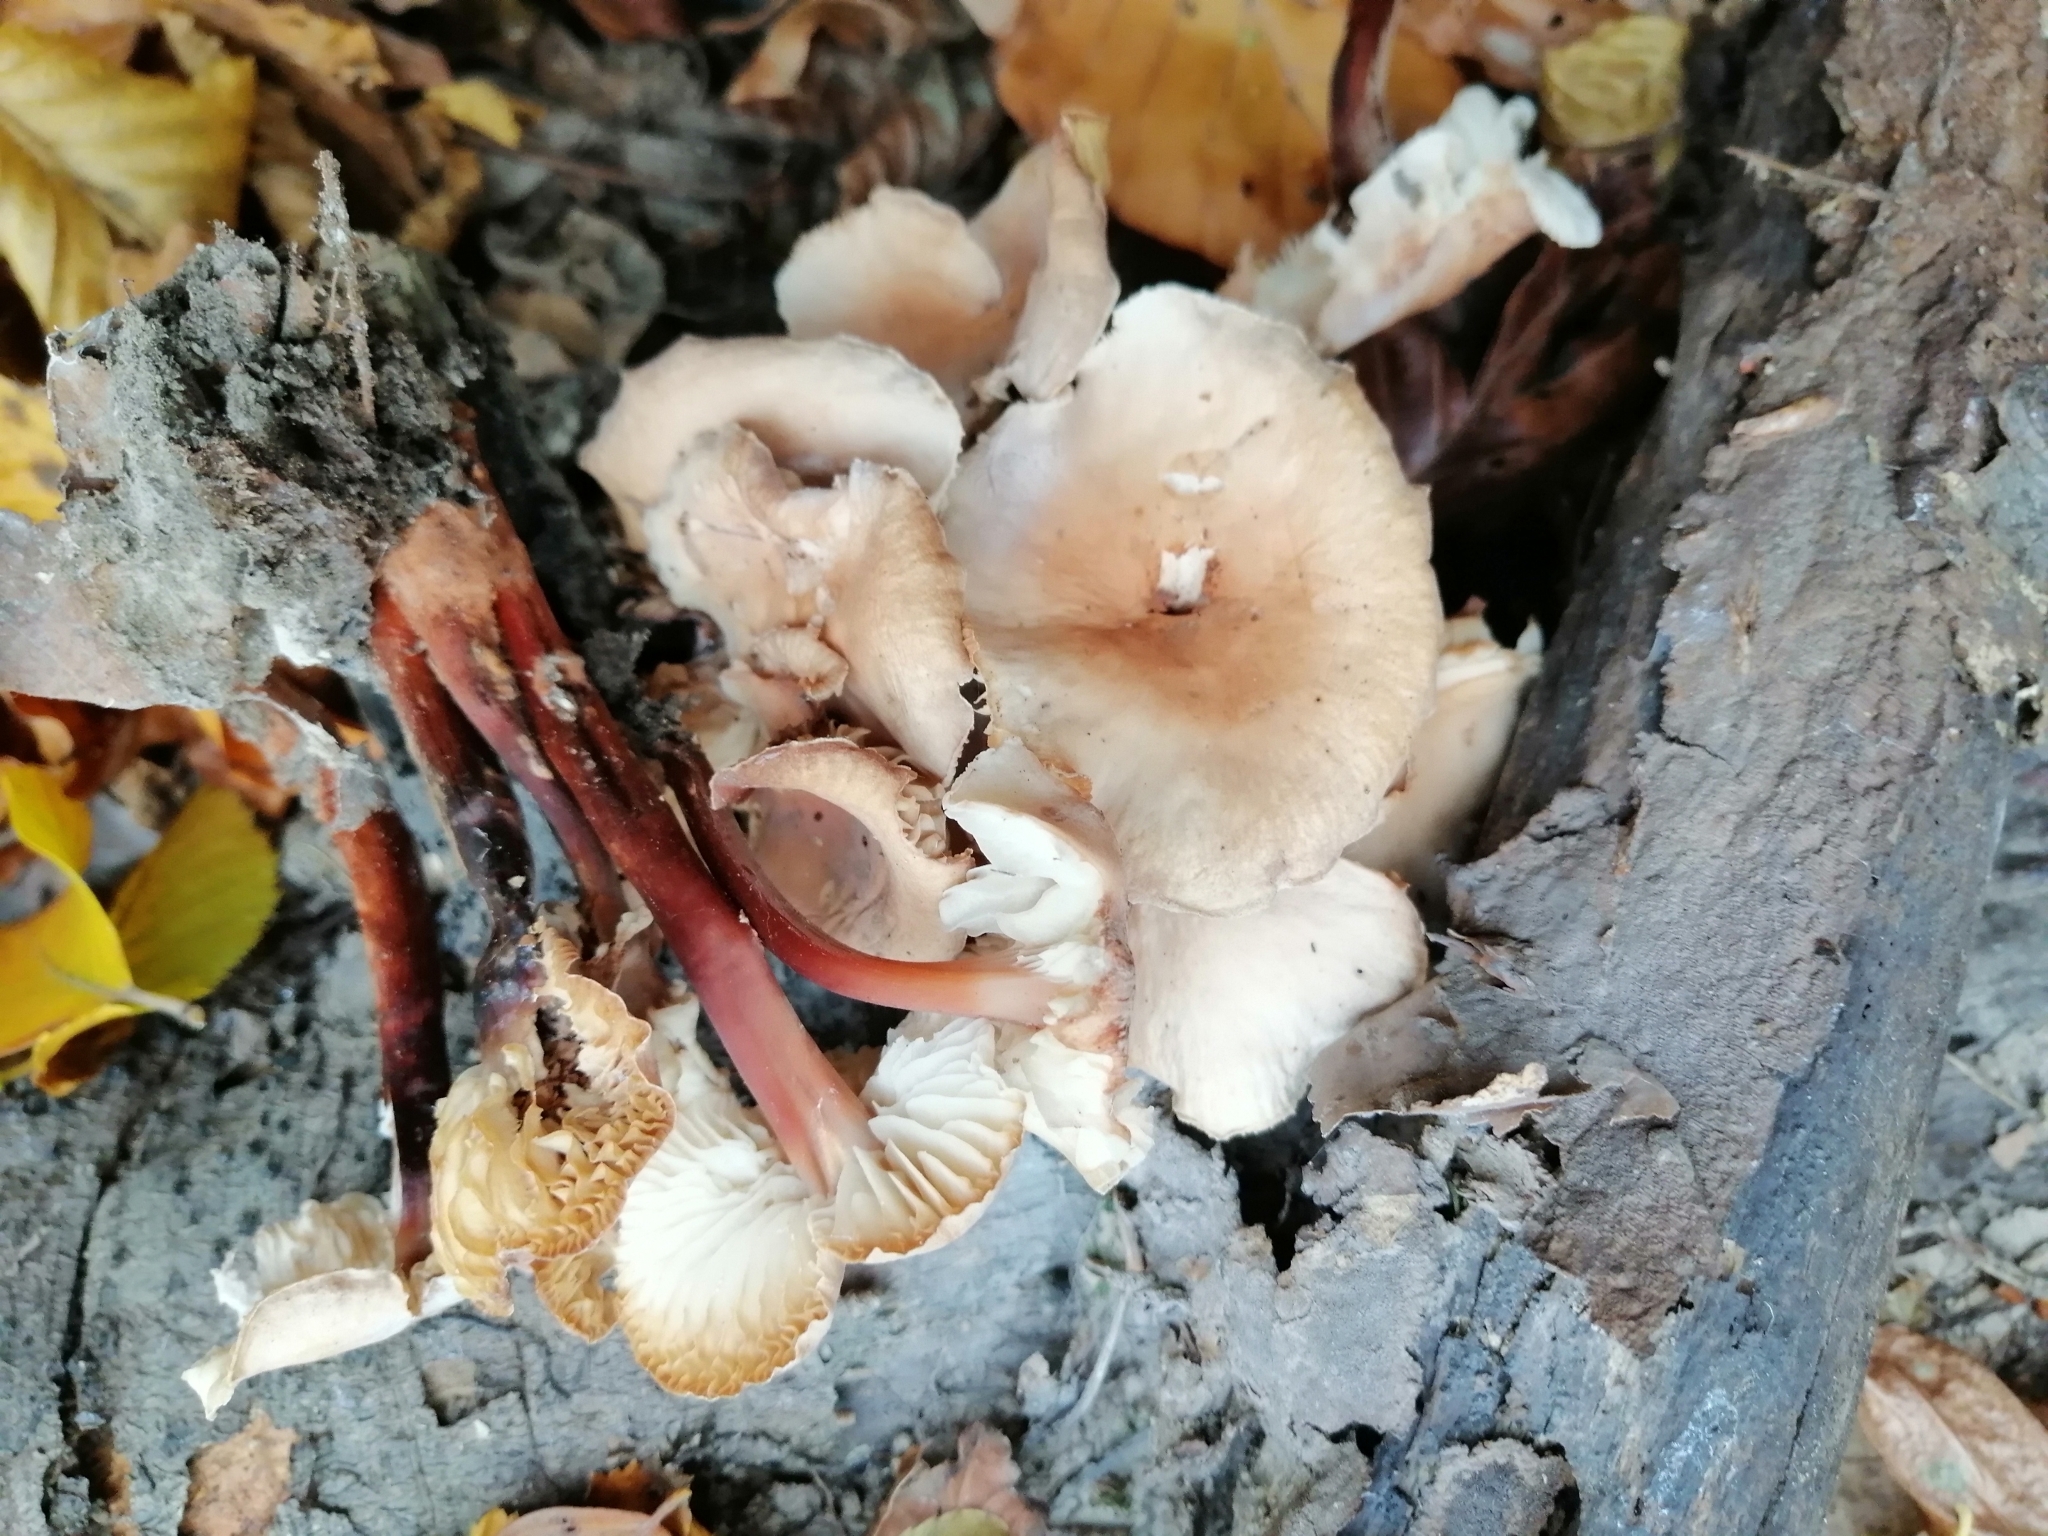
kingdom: Fungi
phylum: Basidiomycota
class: Agaricomycetes
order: Agaricales
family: Omphalotaceae
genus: Gymnopus
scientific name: Gymnopus erythropus
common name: Redleg toughshank
